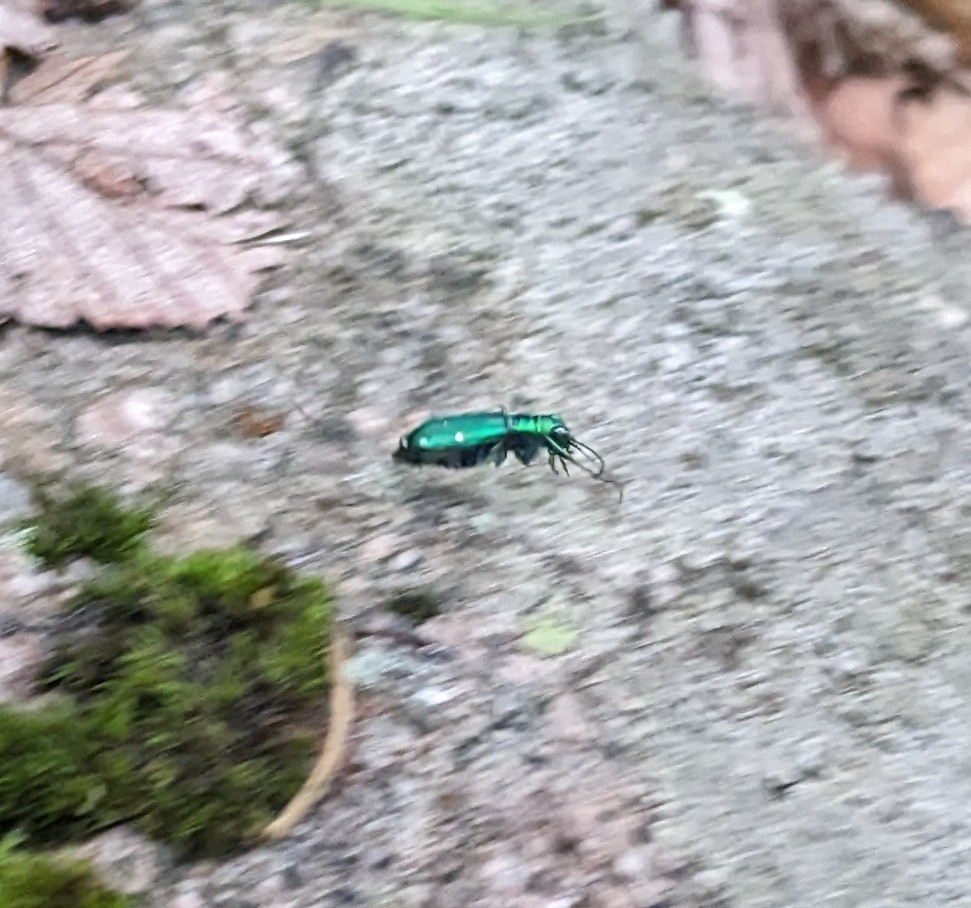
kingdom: Animalia
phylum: Arthropoda
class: Insecta
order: Coleoptera
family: Carabidae
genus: Cicindela
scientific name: Cicindela sexguttata
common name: Six-spotted tiger beetle
